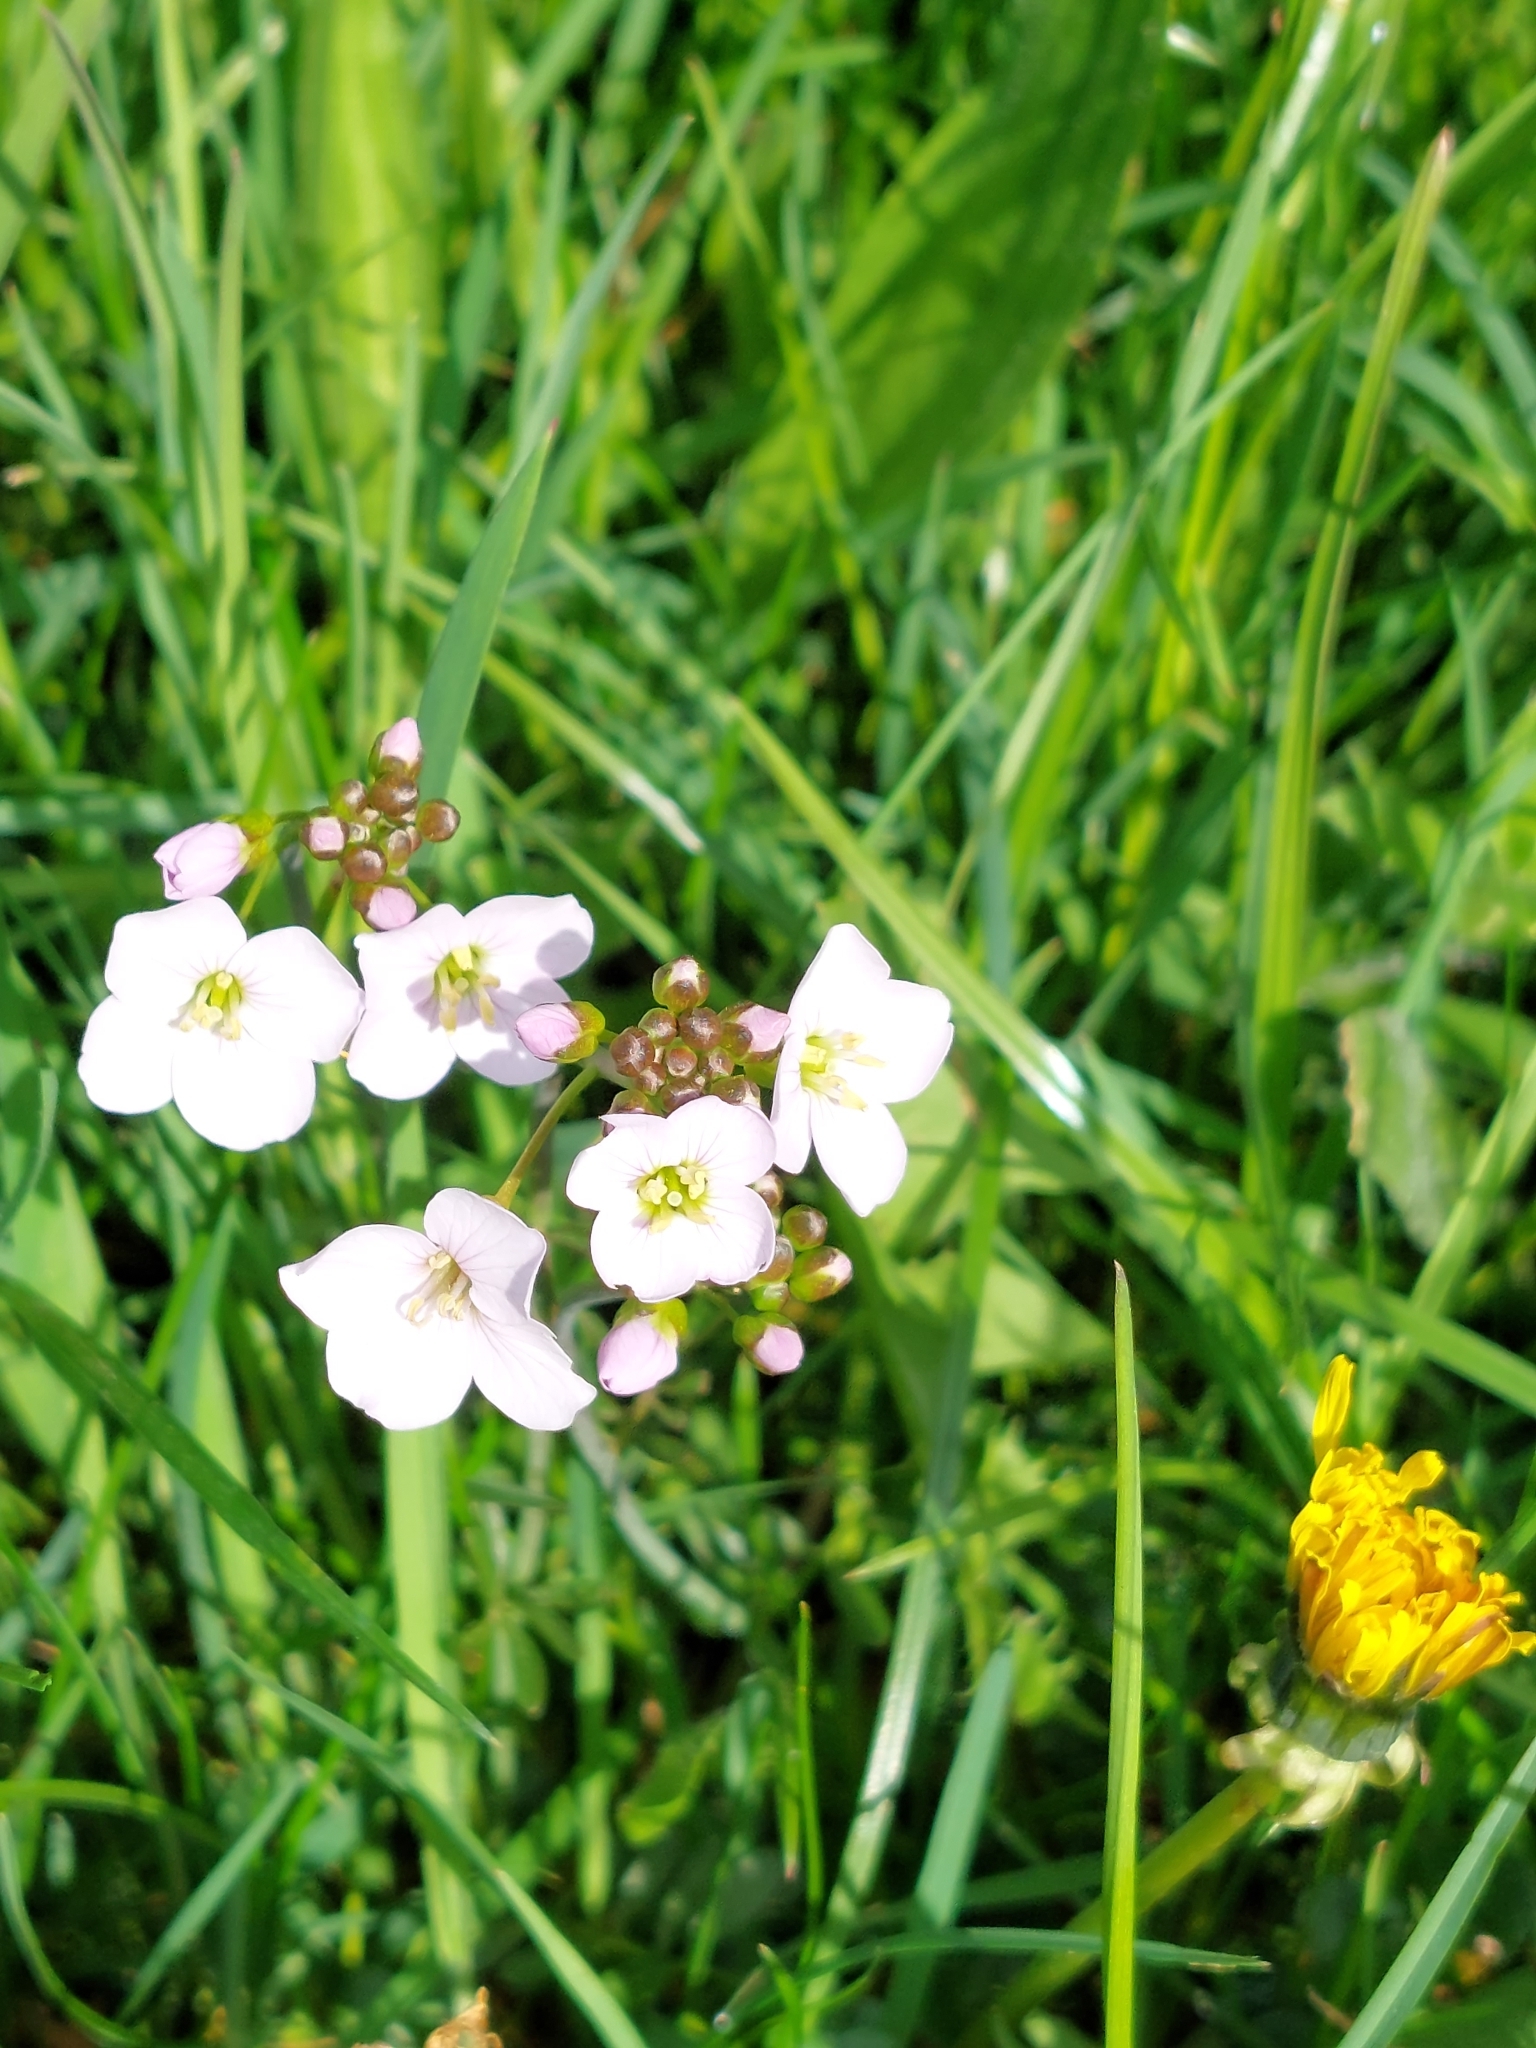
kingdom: Plantae
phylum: Tracheophyta
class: Magnoliopsida
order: Brassicales
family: Brassicaceae
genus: Cardamine
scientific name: Cardamine pratensis
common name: Cuckoo flower
